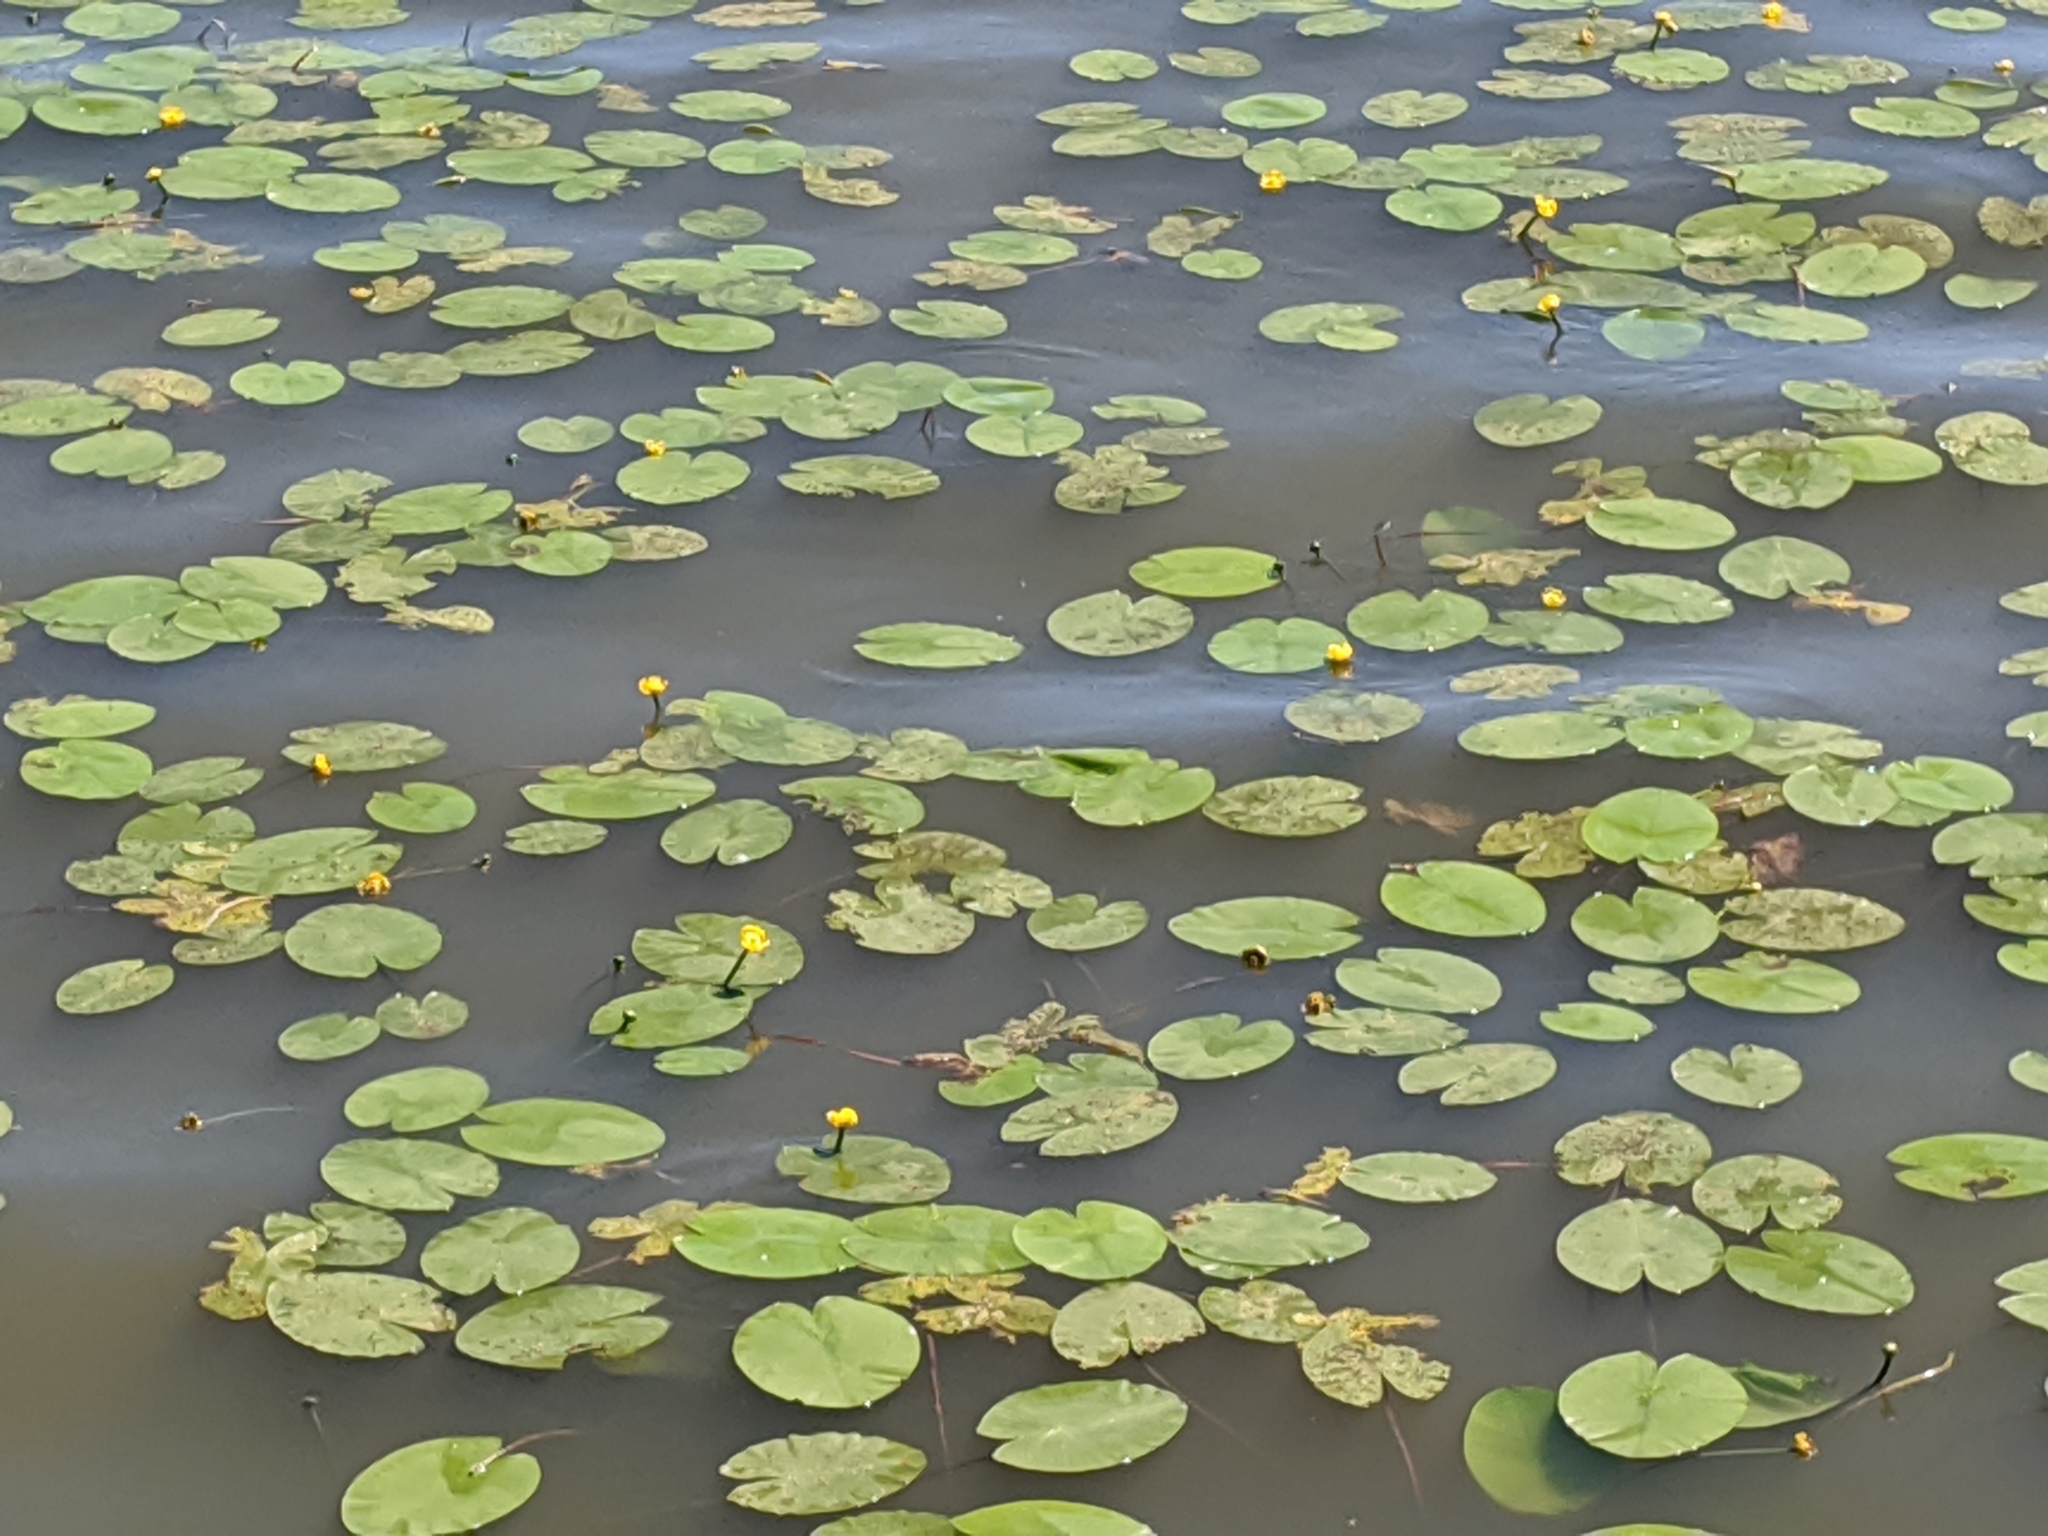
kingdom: Plantae
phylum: Tracheophyta
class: Magnoliopsida
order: Nymphaeales
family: Nymphaeaceae
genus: Nuphar
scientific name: Nuphar lutea
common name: Yellow water-lily
